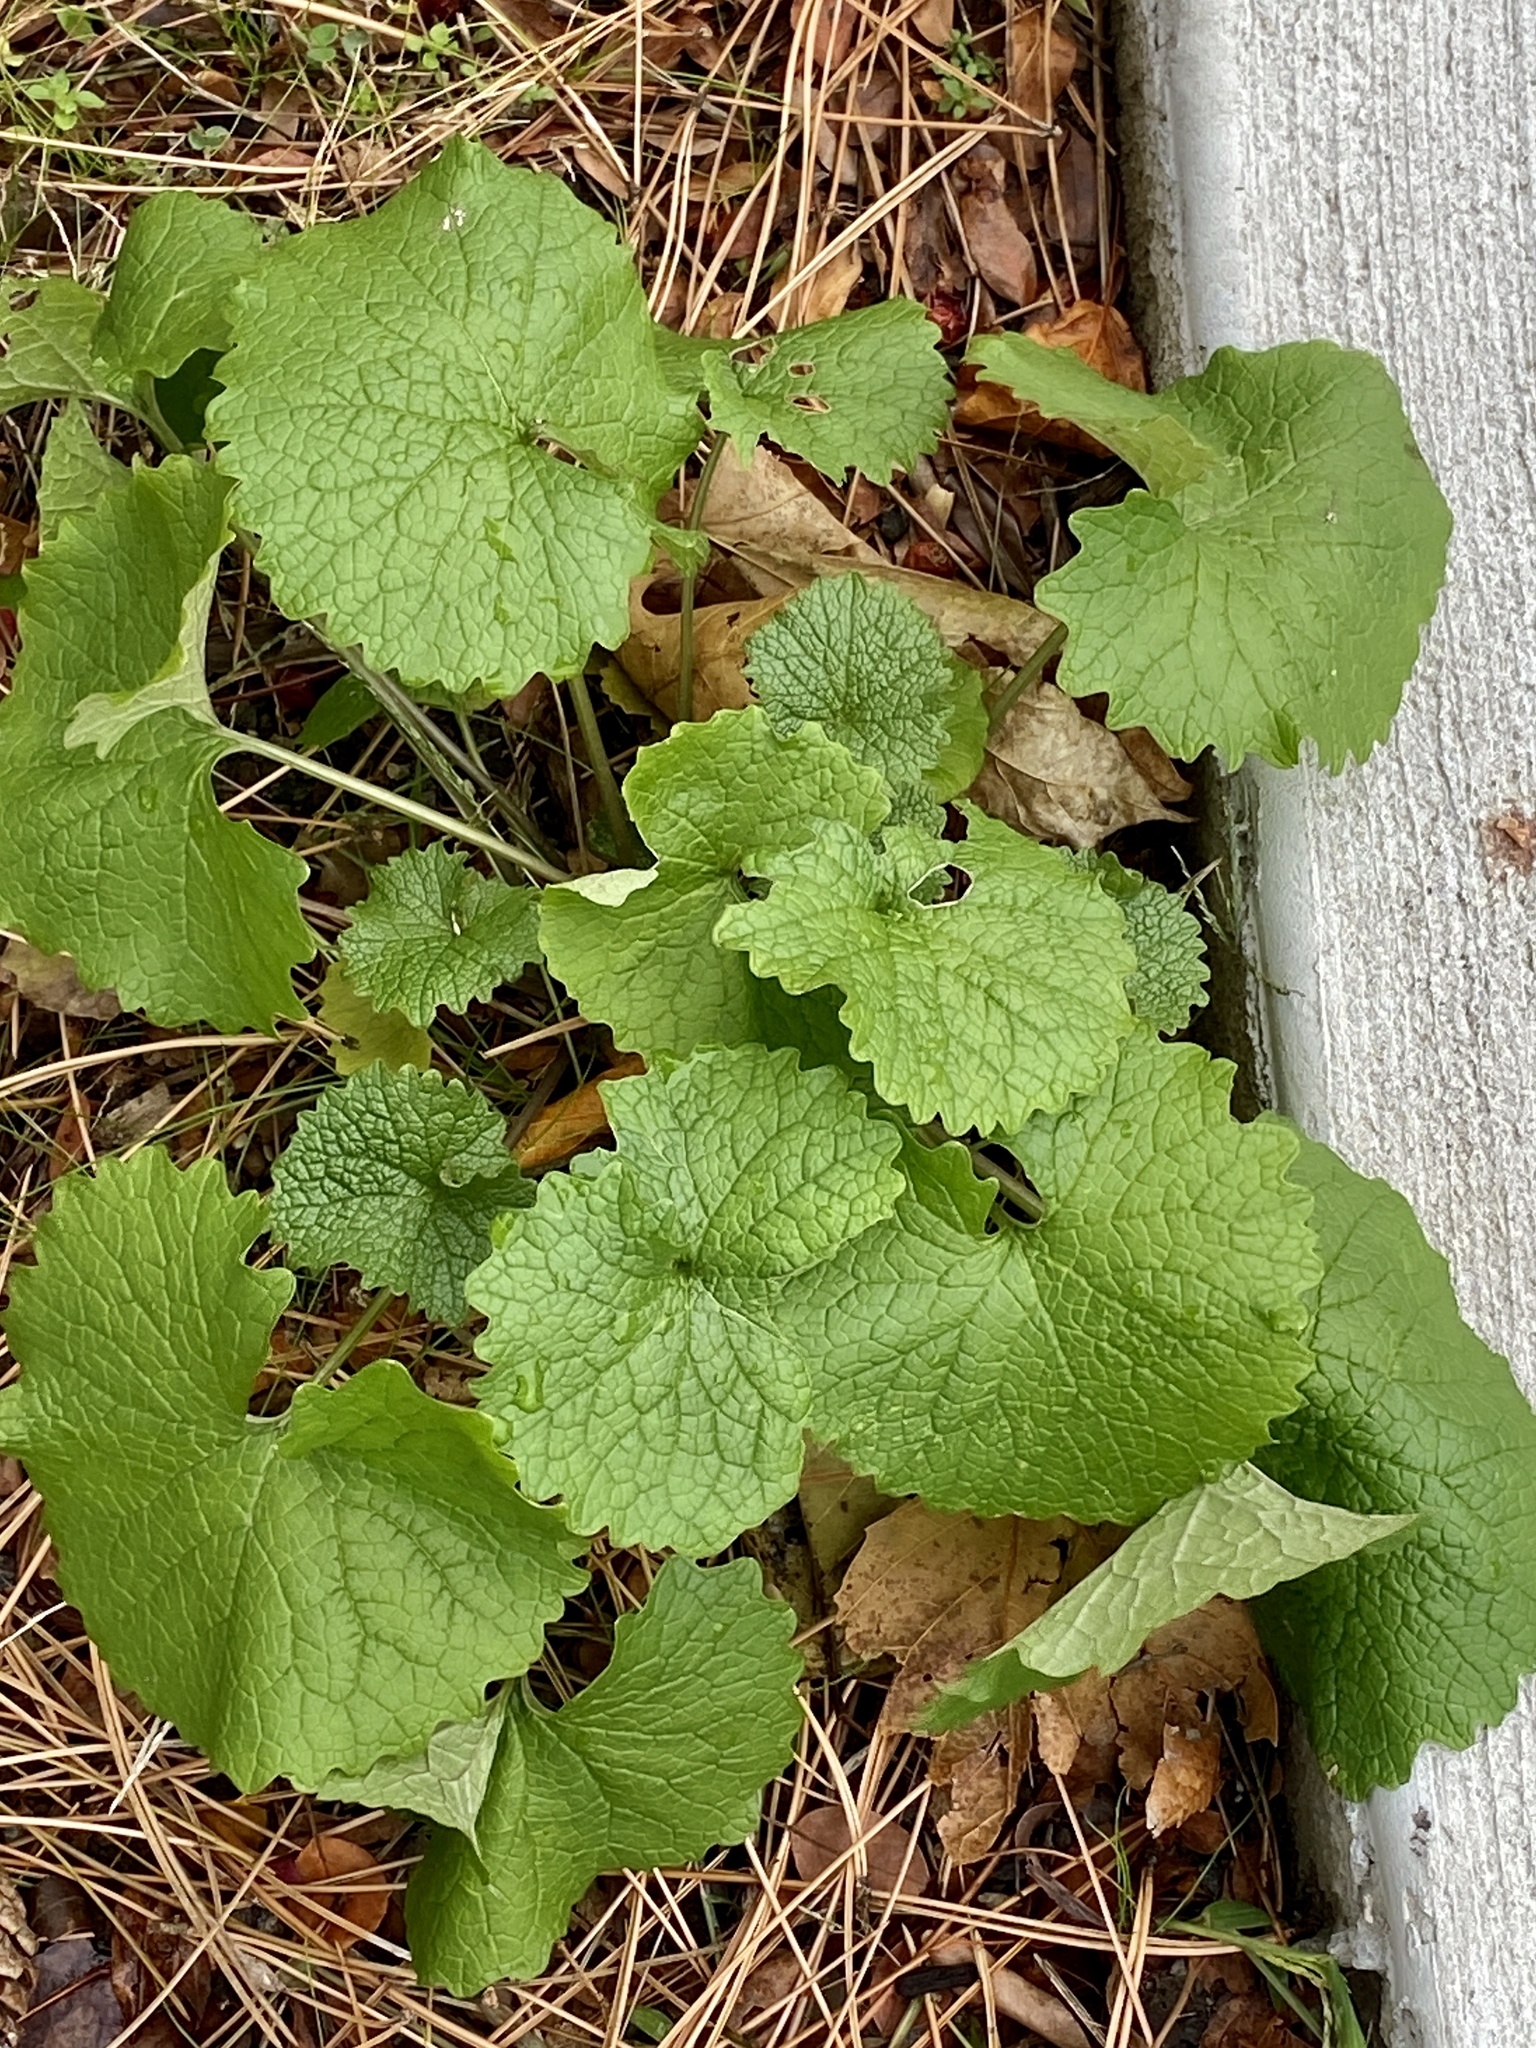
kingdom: Plantae
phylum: Tracheophyta
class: Magnoliopsida
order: Brassicales
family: Brassicaceae
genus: Alliaria
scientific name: Alliaria petiolata
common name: Garlic mustard
